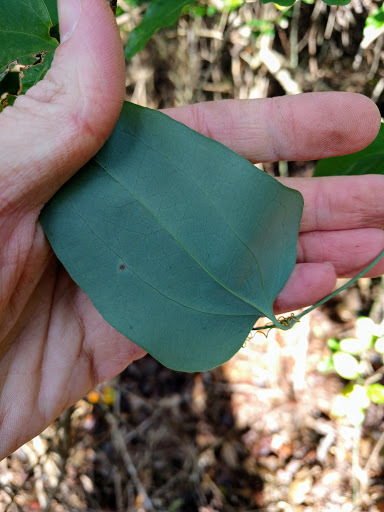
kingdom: Plantae
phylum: Tracheophyta
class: Liliopsida
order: Liliales
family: Smilacaceae
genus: Smilax
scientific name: Smilax glauca
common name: Cat greenbrier
